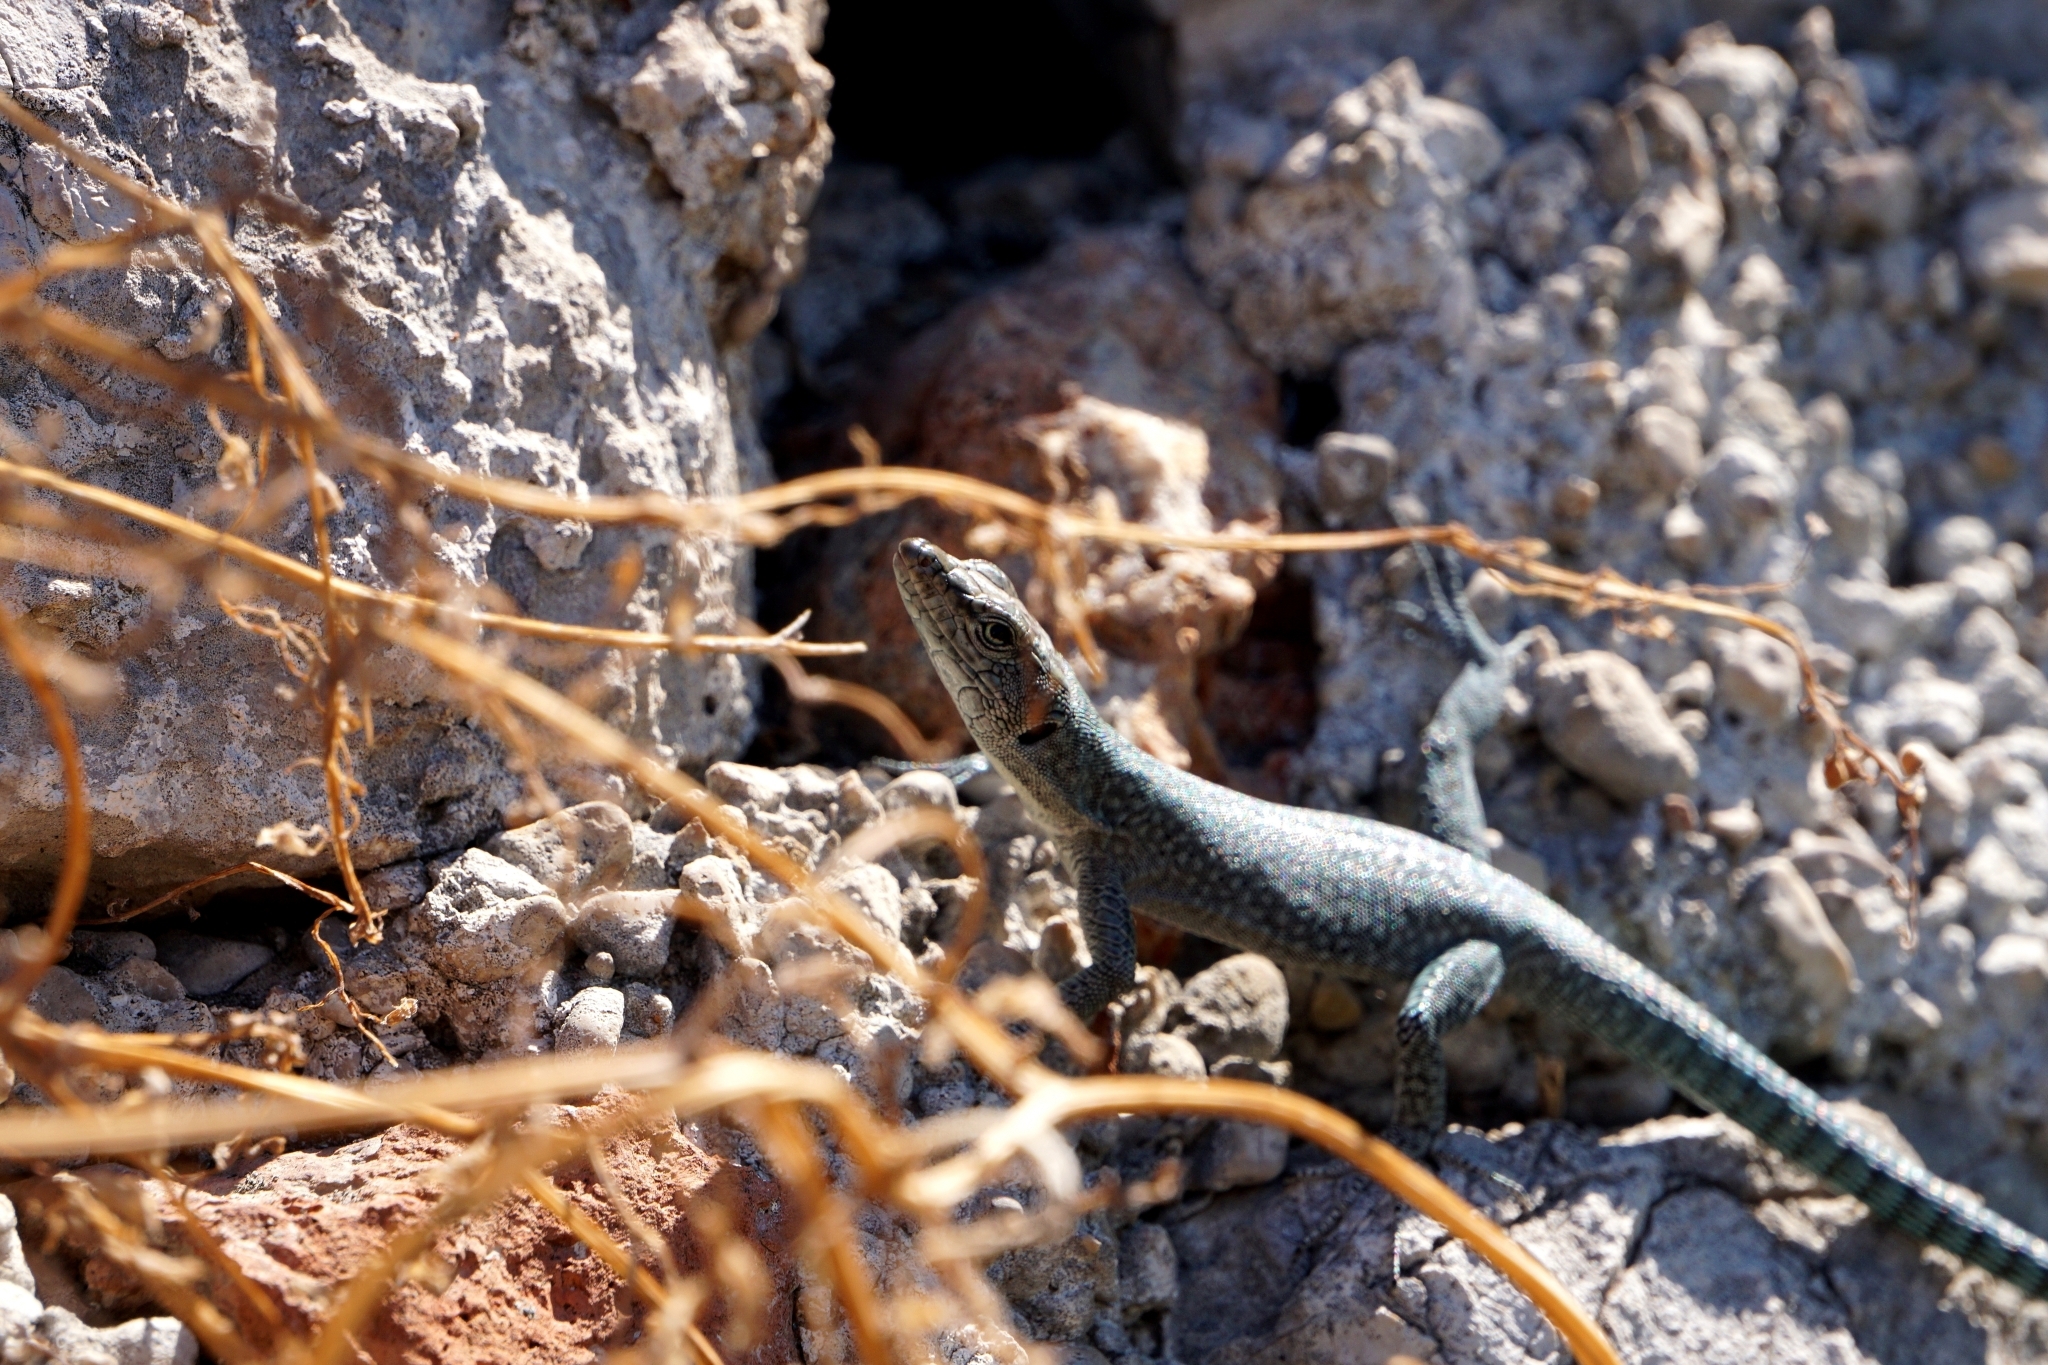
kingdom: Animalia
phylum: Chordata
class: Squamata
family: Lacertidae
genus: Dalmatolacerta
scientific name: Dalmatolacerta oxycephala
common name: Sharp-snouted rock lizard
